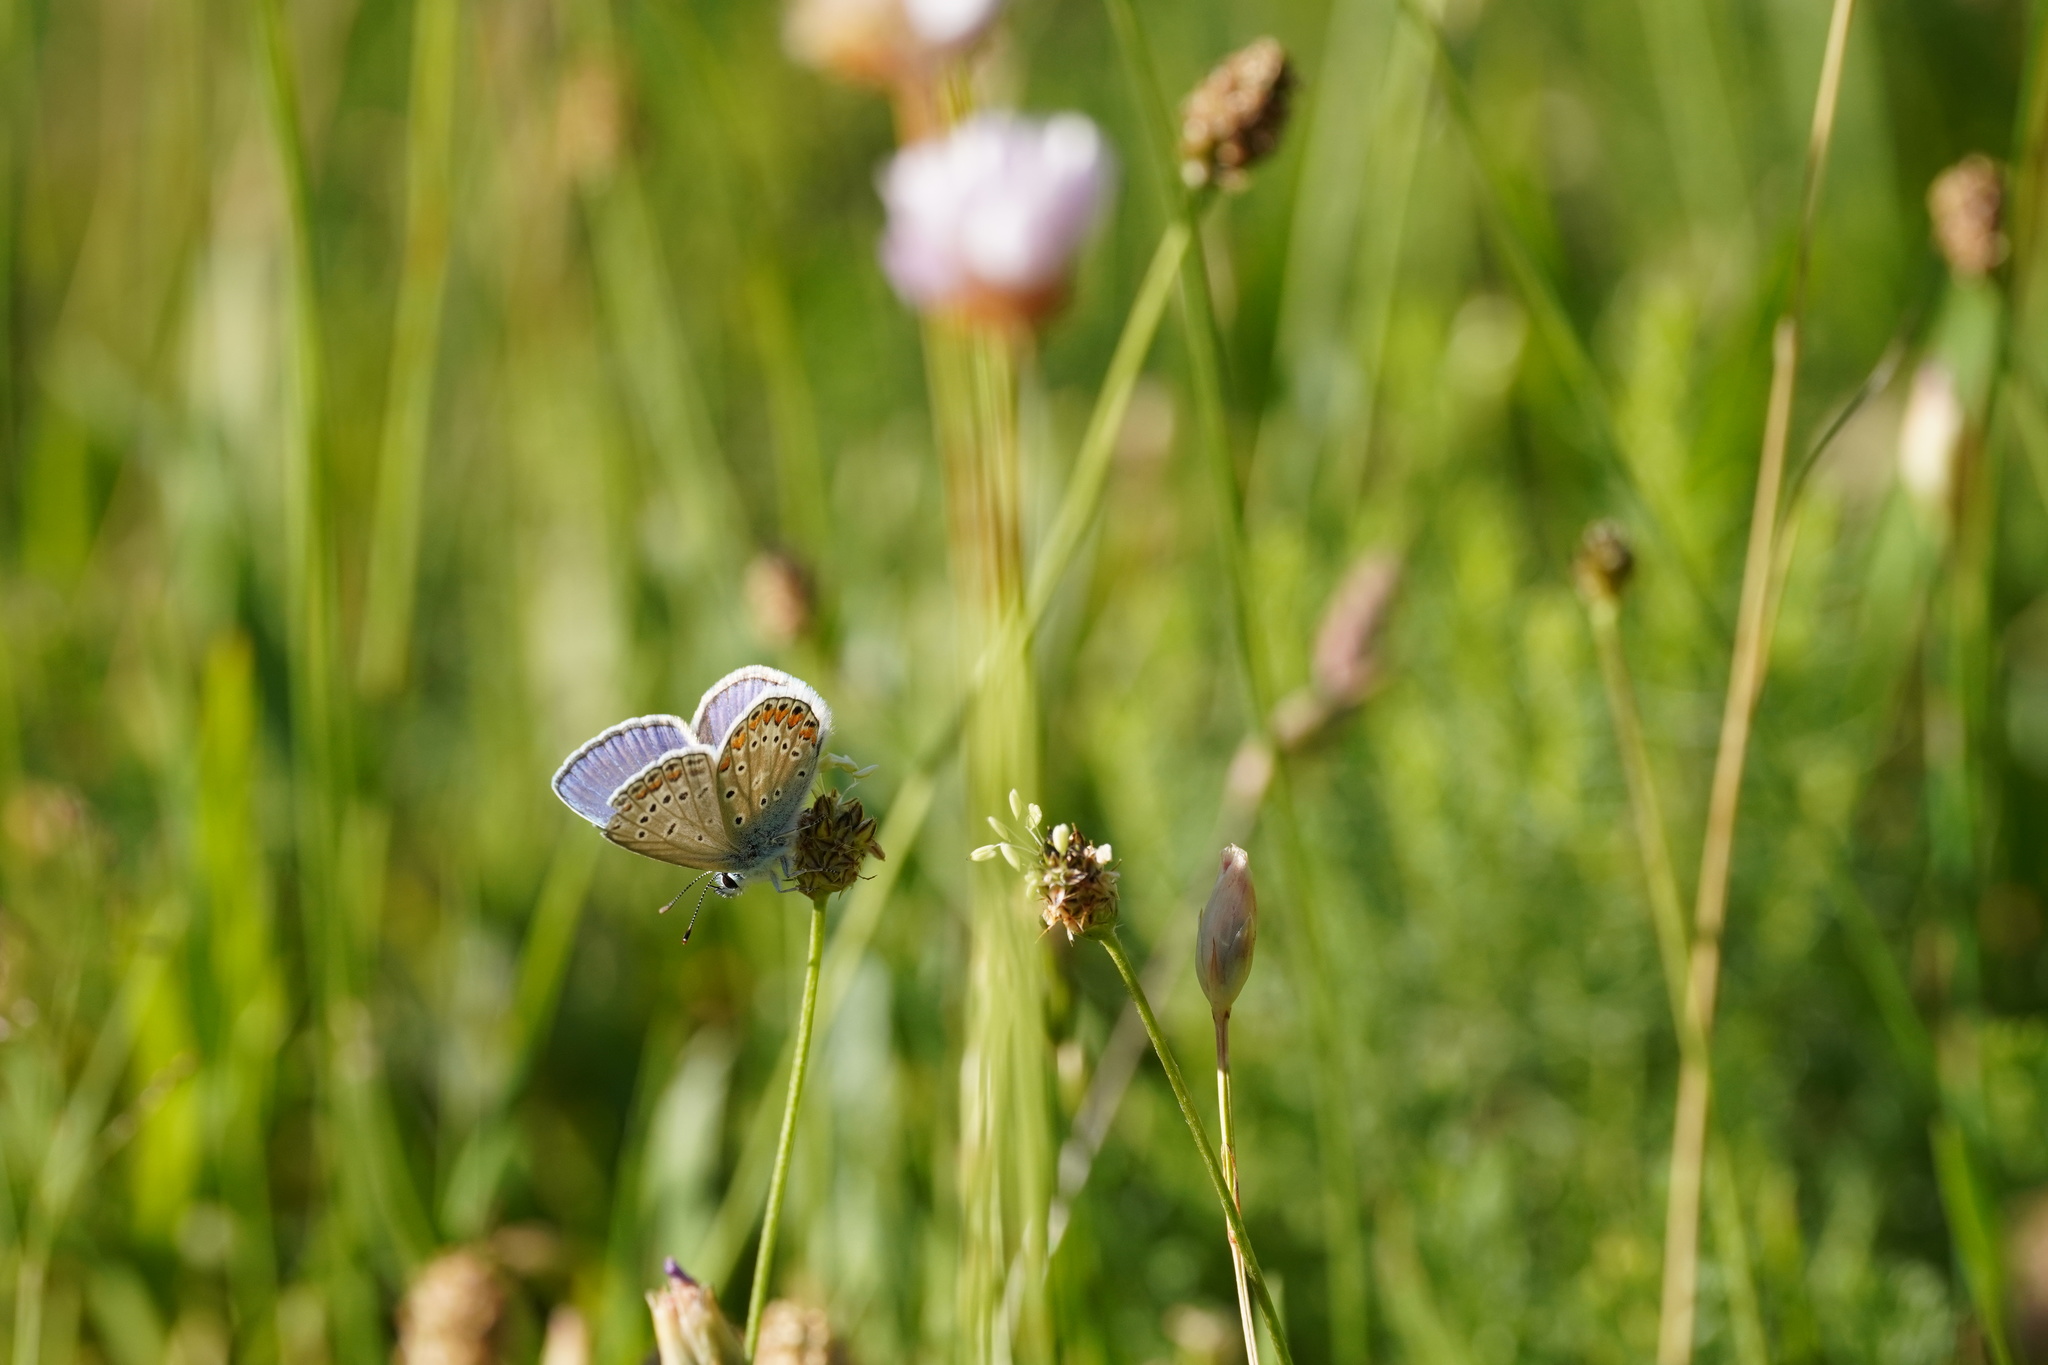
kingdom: Animalia
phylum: Arthropoda
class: Insecta
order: Lepidoptera
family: Lycaenidae
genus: Polyommatus
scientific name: Polyommatus icarus
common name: Common blue
